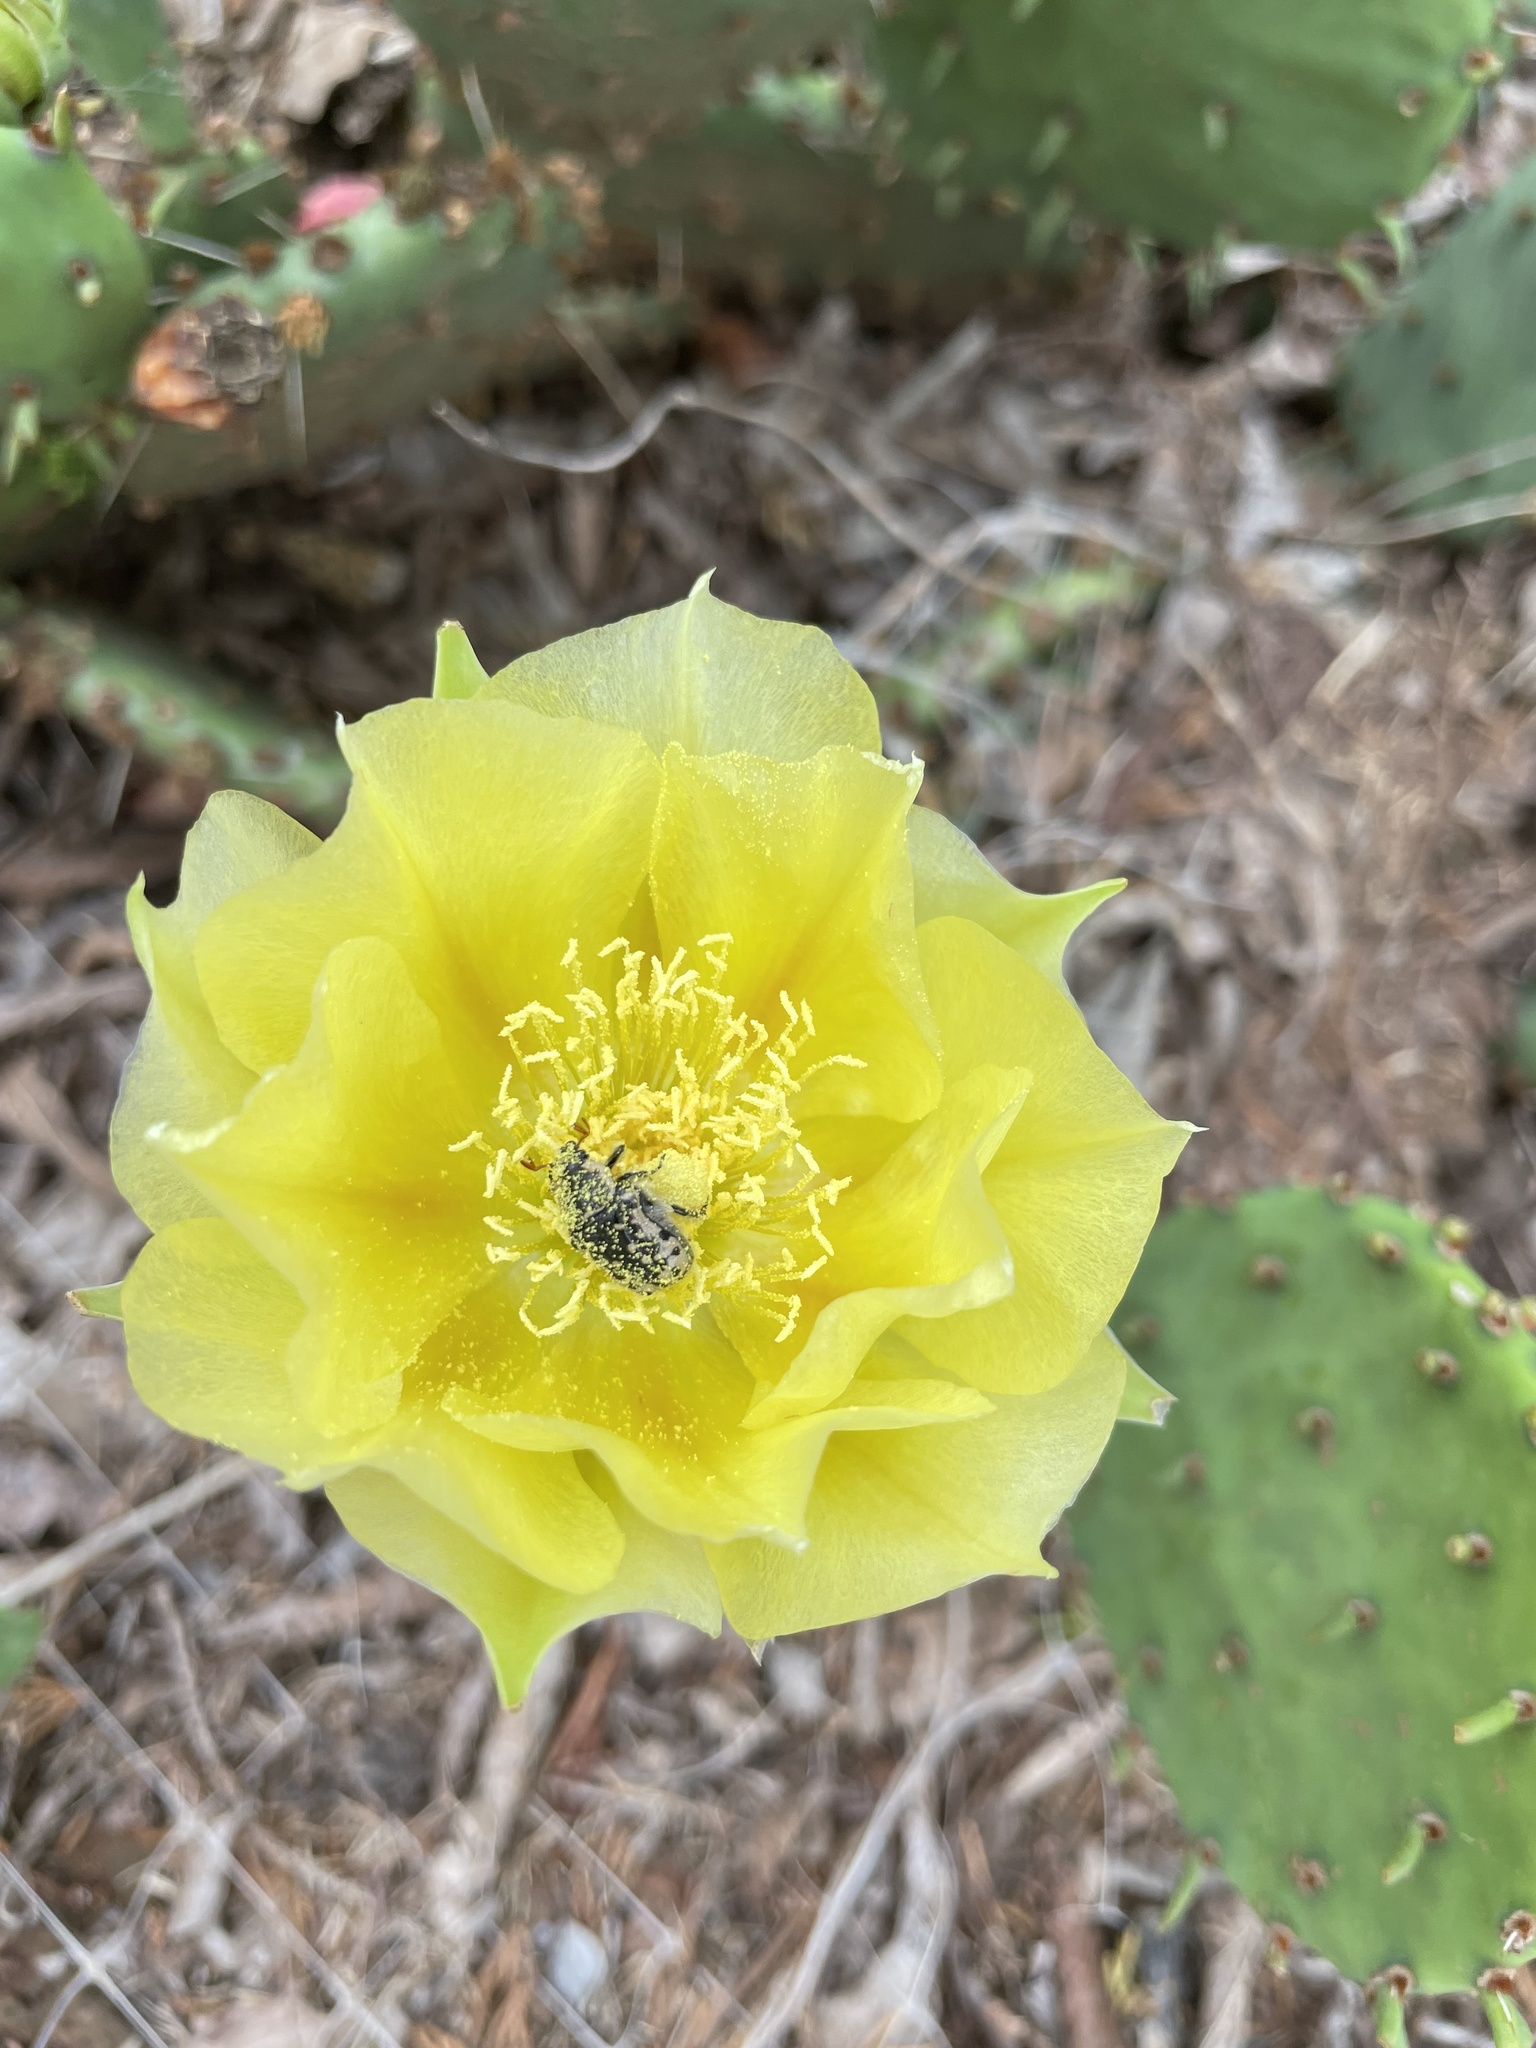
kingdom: Animalia
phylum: Arthropoda
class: Insecta
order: Coleoptera
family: Scarabaeidae
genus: Euphoria
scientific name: Euphoria kernii
